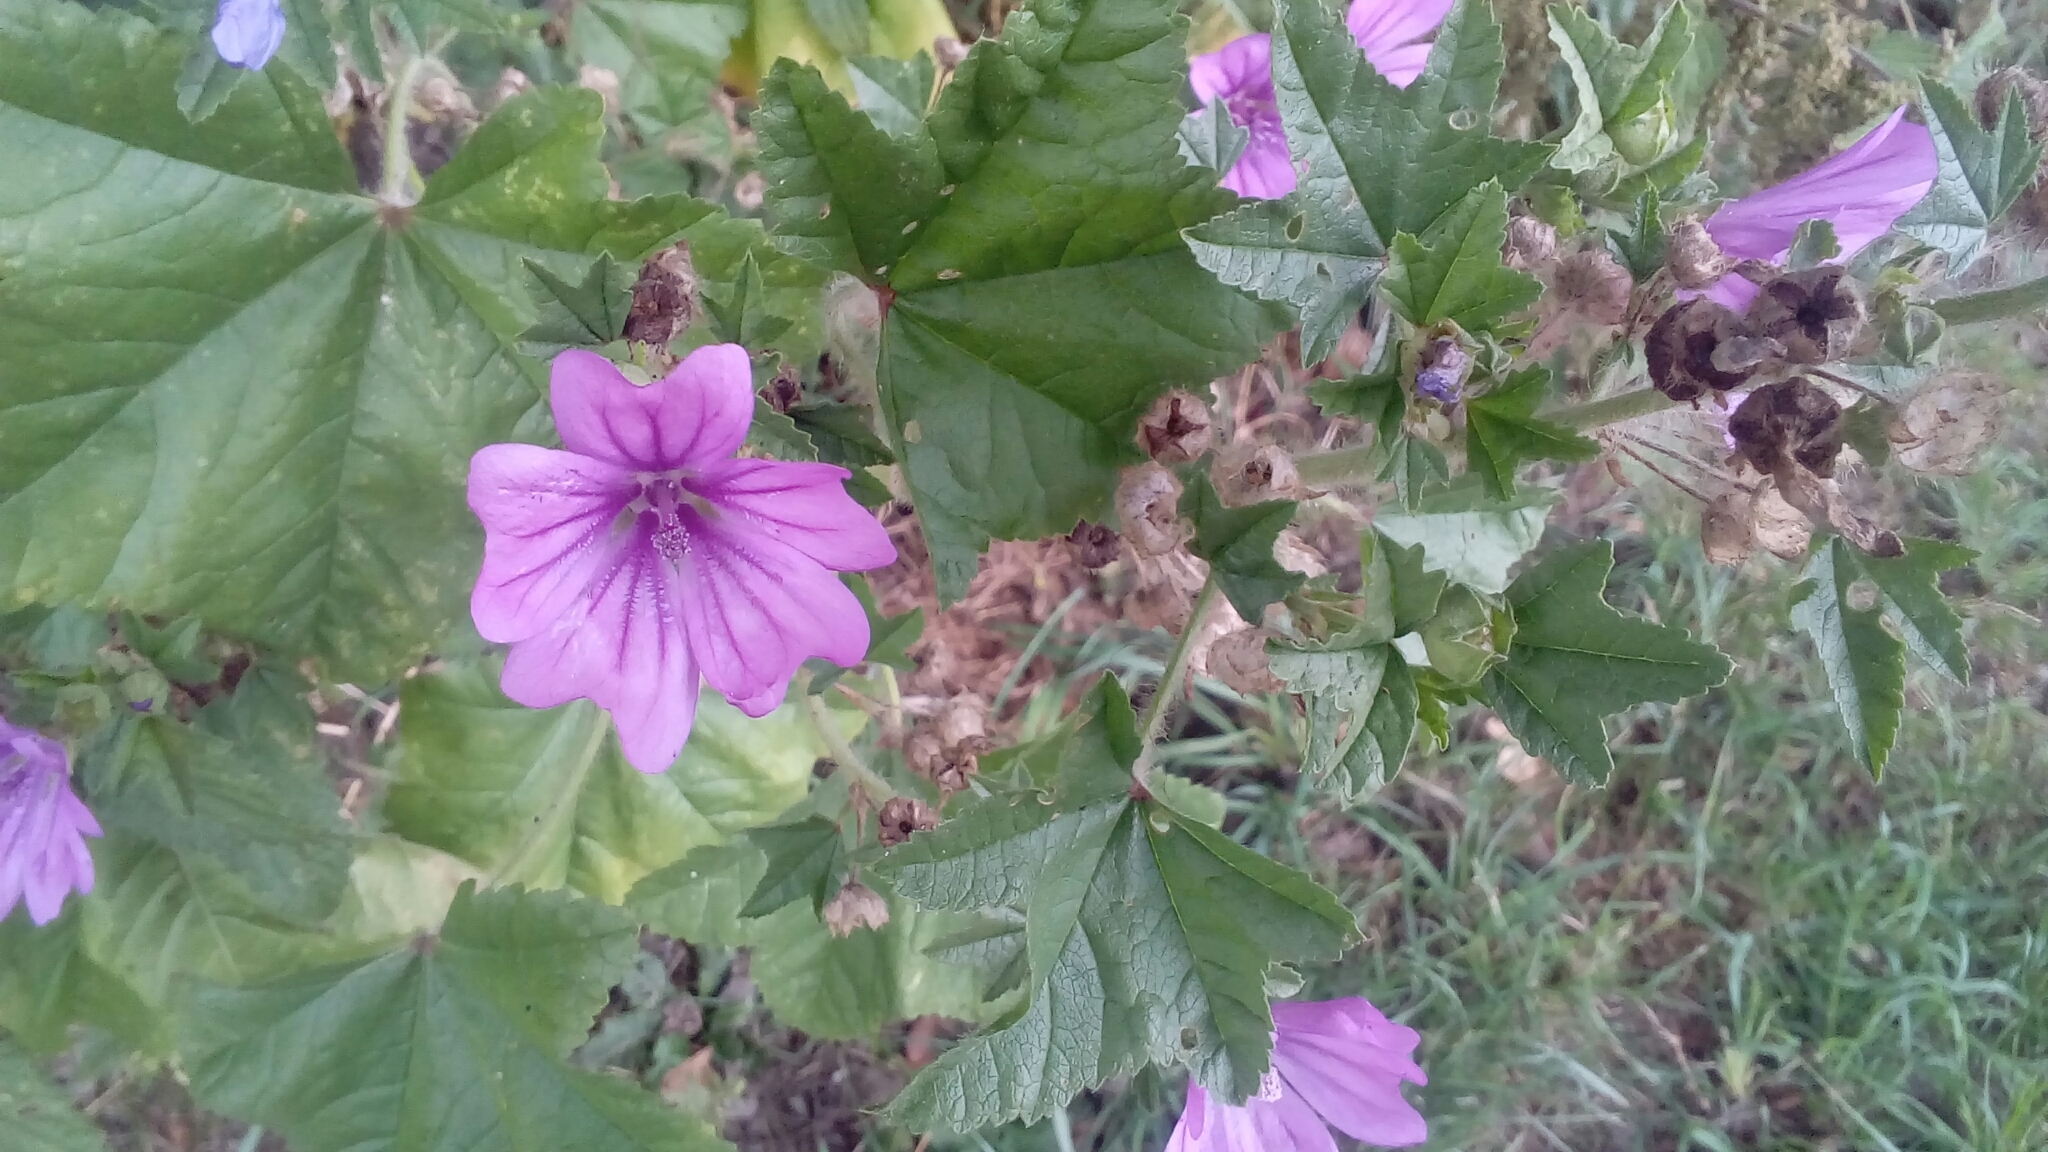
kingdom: Plantae
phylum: Tracheophyta
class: Magnoliopsida
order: Malvales
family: Malvaceae
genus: Malva
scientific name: Malva sylvestris
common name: Common mallow
